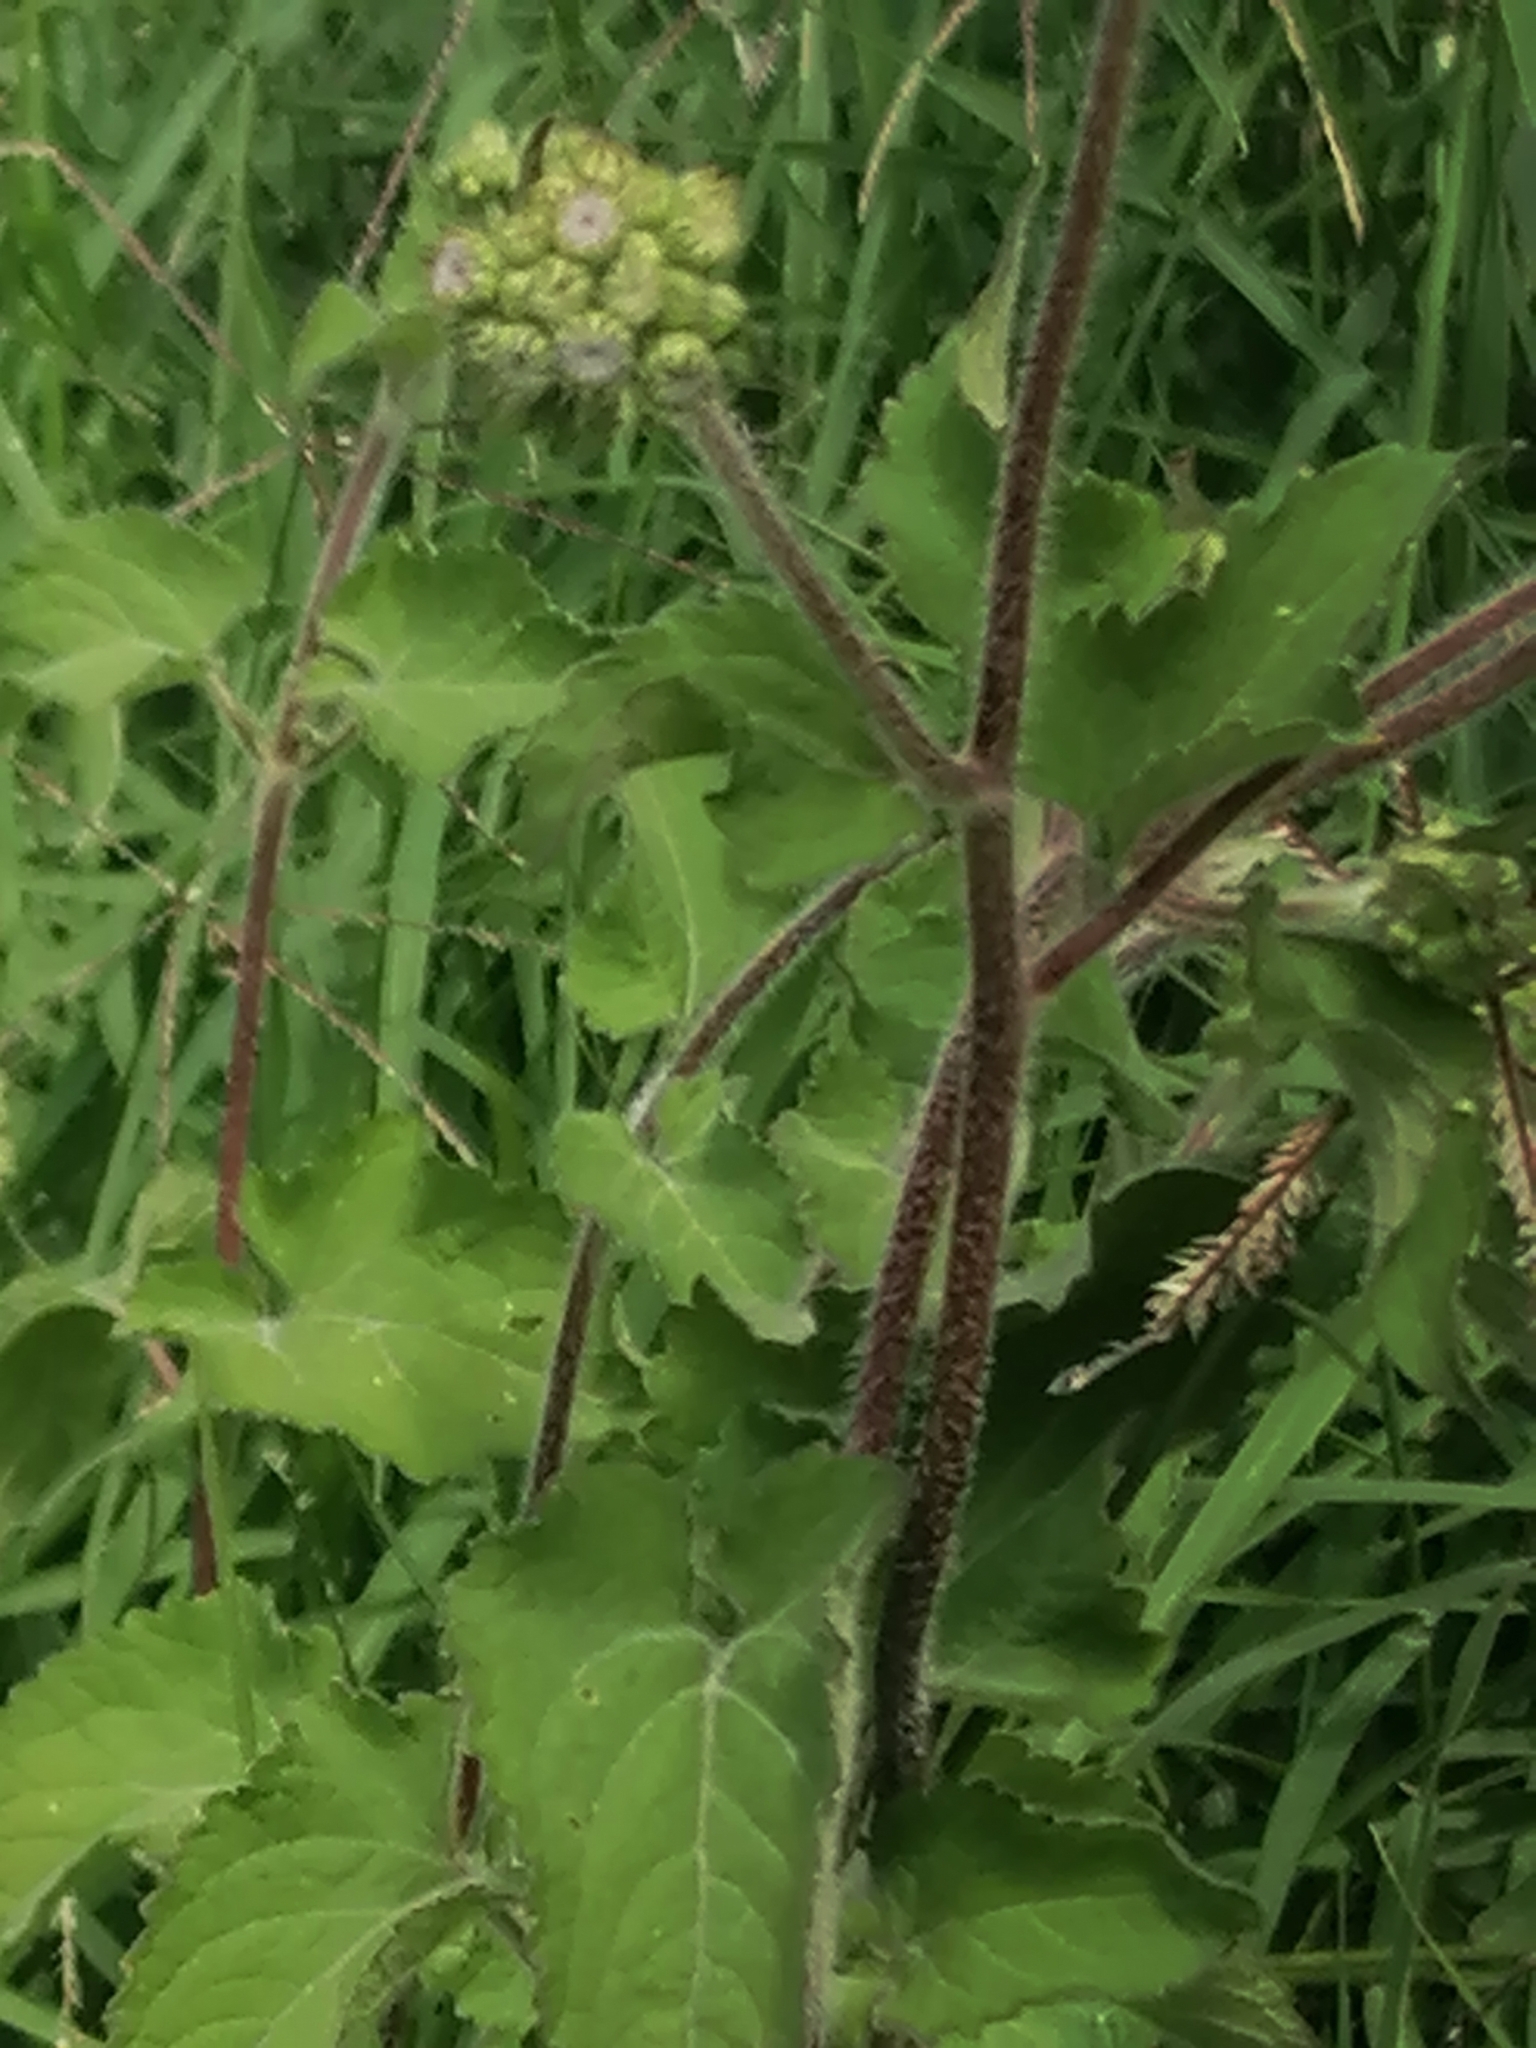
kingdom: Plantae
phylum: Tracheophyta
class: Magnoliopsida
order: Asterales
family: Asteraceae
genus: Ageratum
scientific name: Ageratum houstonianum
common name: Bluemink
